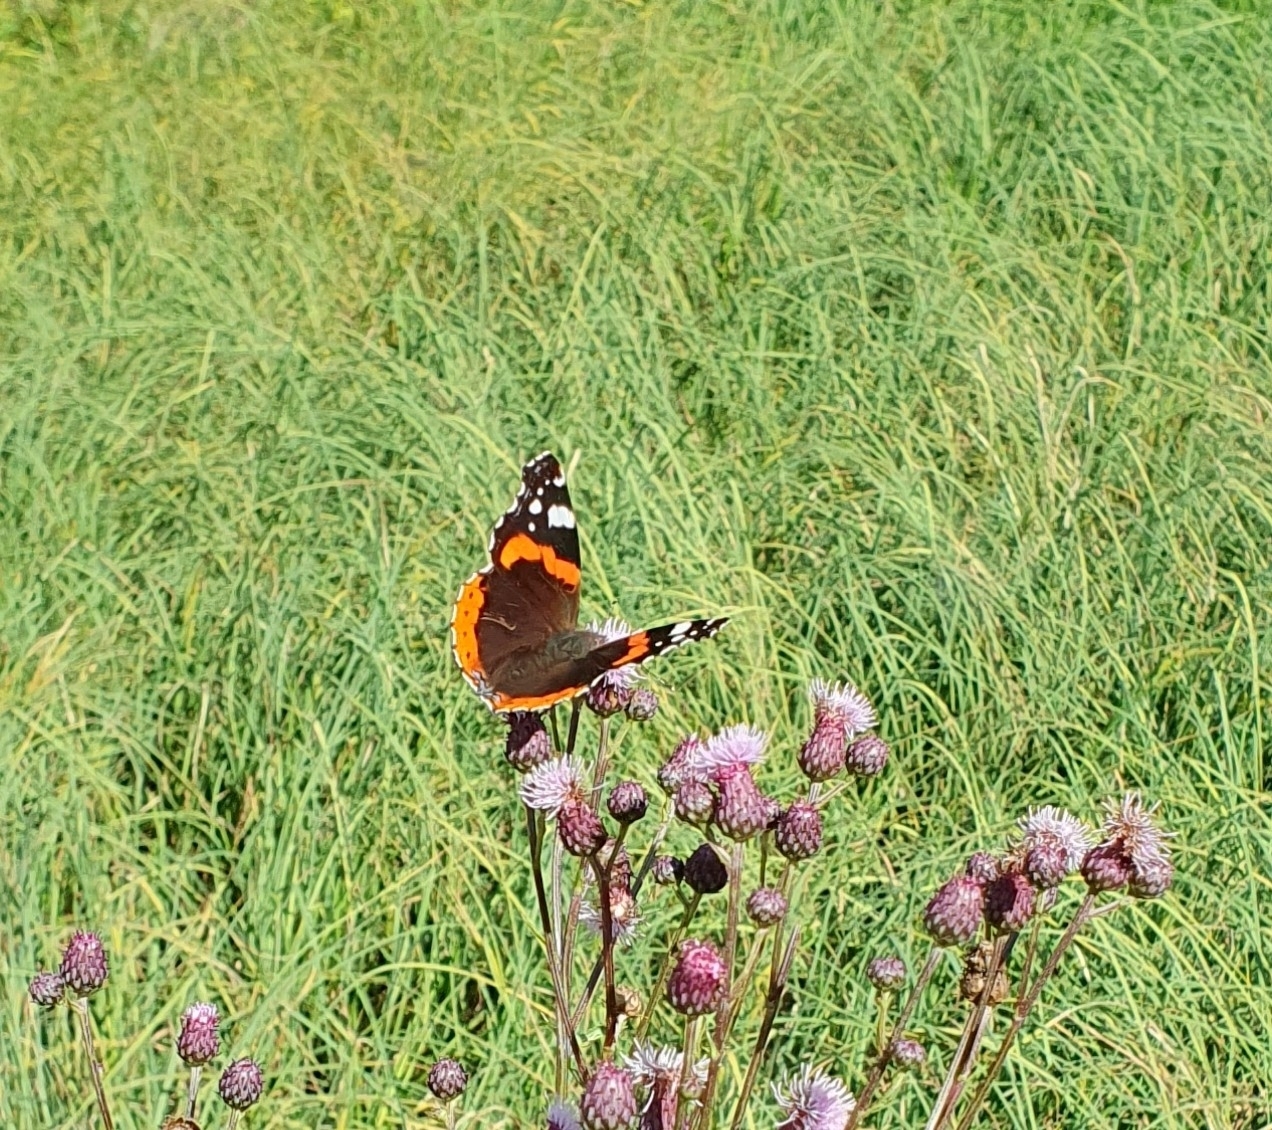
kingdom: Animalia
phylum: Arthropoda
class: Insecta
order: Lepidoptera
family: Nymphalidae
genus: Vanessa
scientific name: Vanessa atalanta
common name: Red admiral
